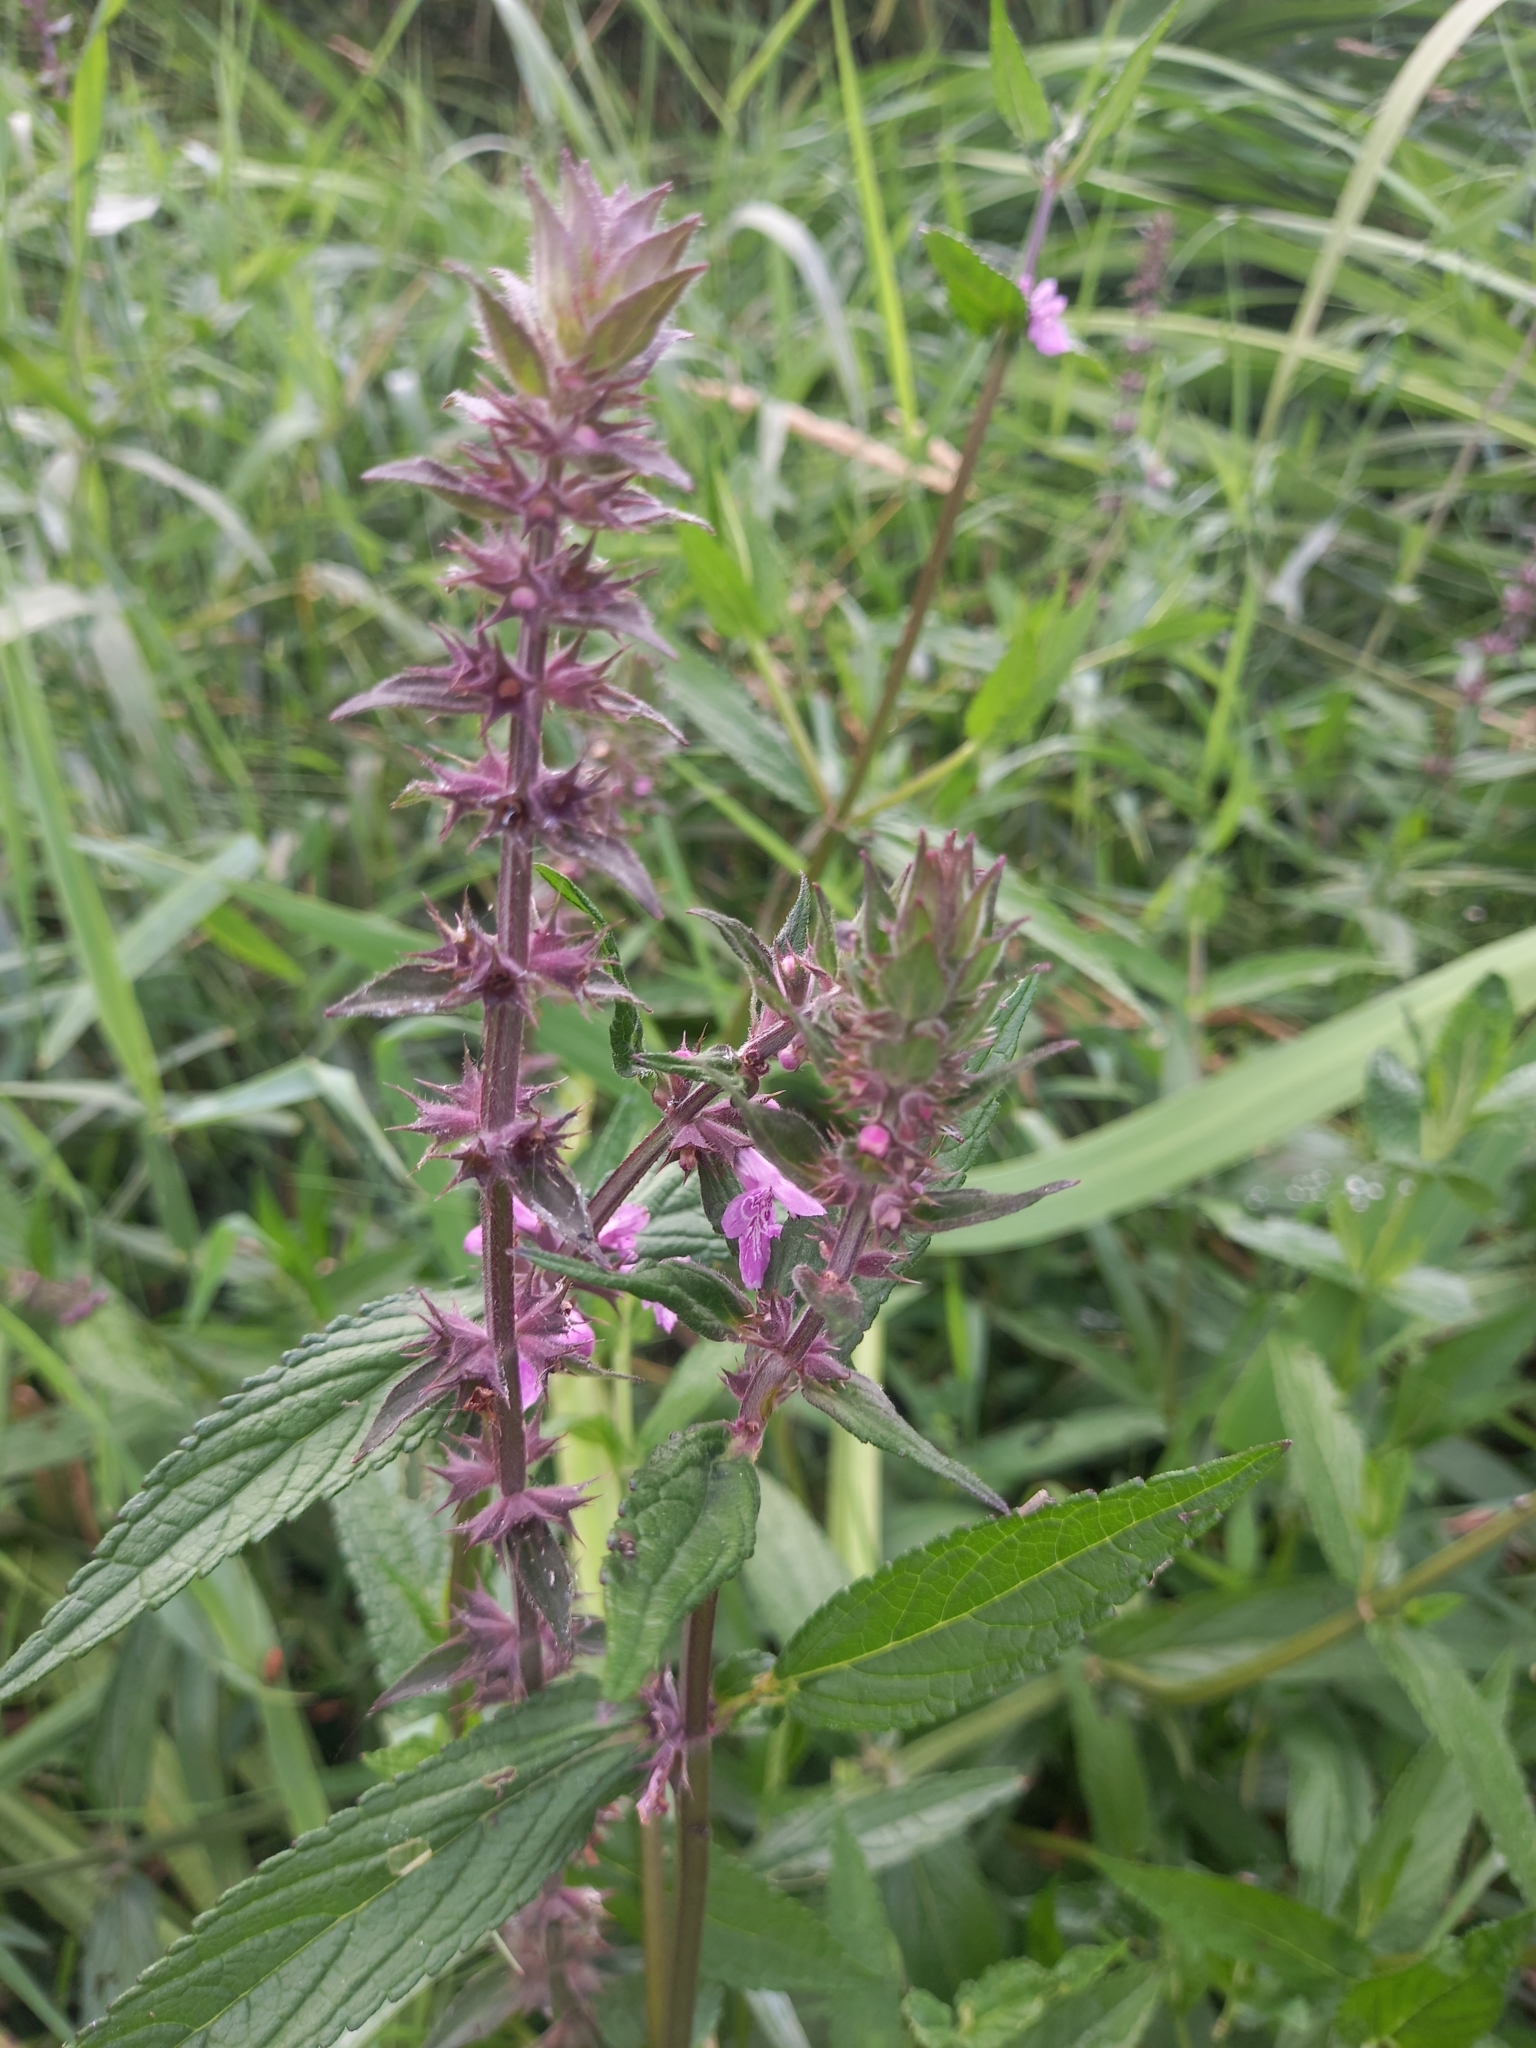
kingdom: Plantae
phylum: Tracheophyta
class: Magnoliopsida
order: Lamiales
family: Lamiaceae
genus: Stachys
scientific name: Stachys palustris
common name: Marsh woundwort
